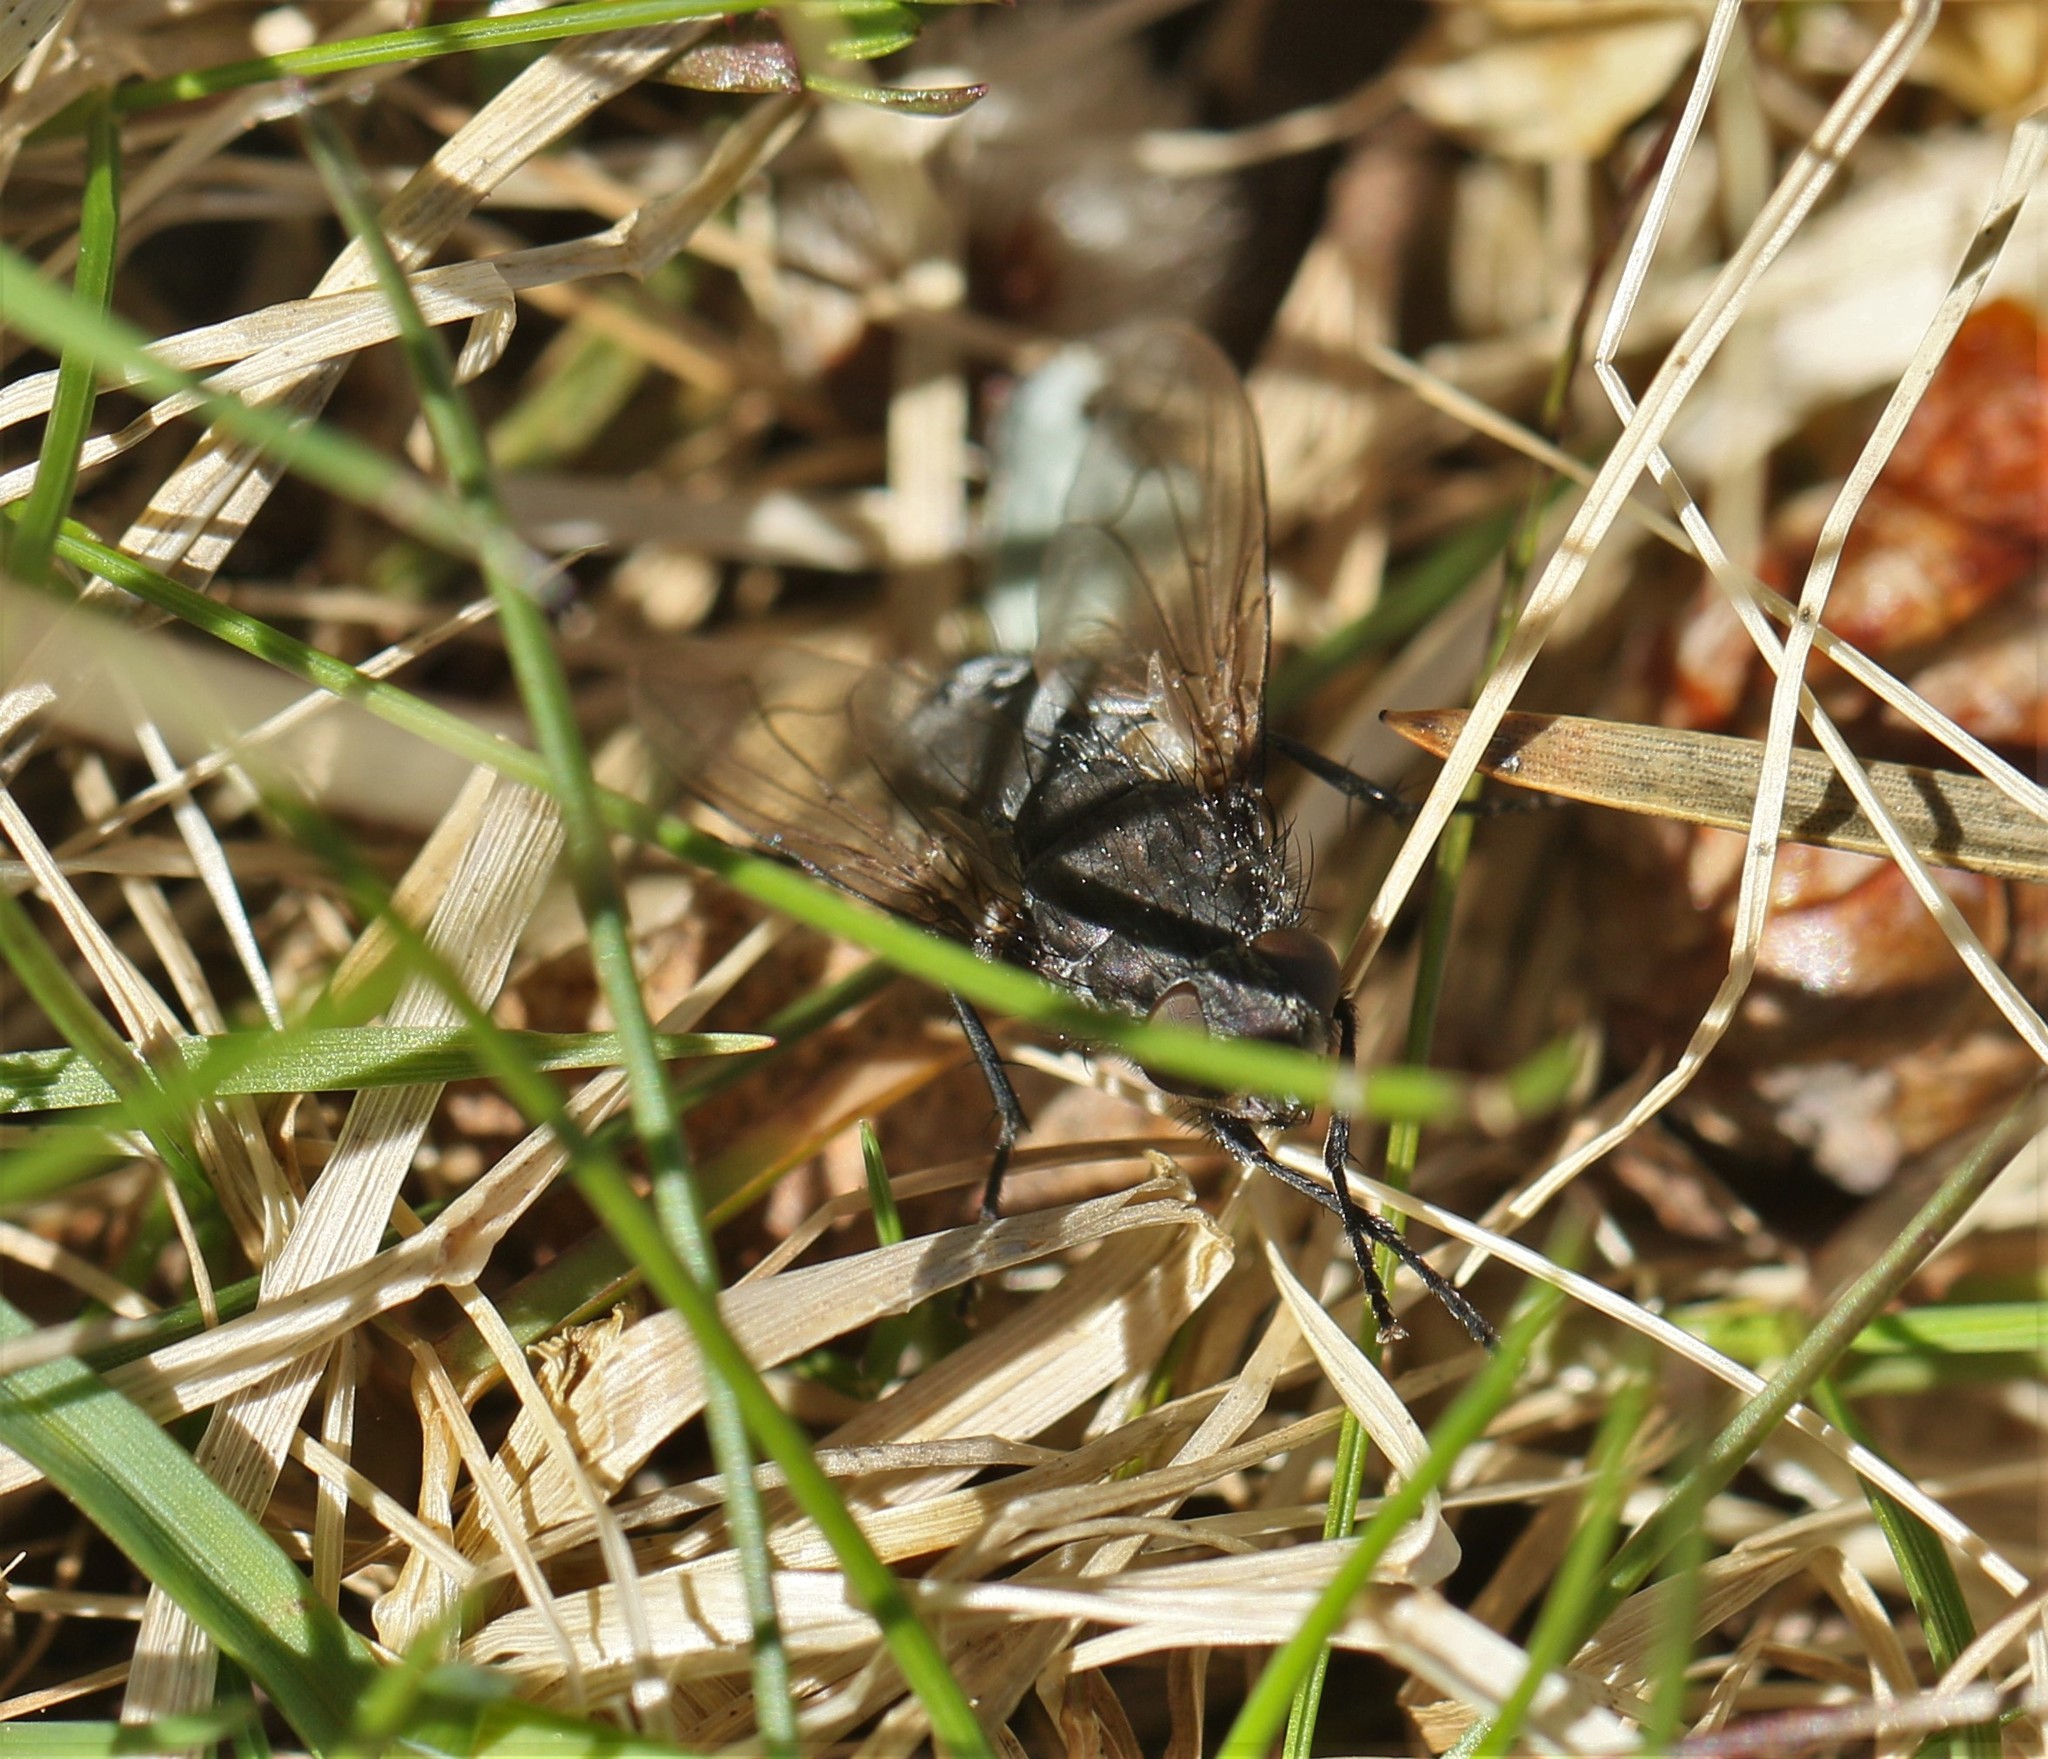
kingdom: Animalia
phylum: Arthropoda
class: Insecta
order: Diptera
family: Polleniidae
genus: Pollenia
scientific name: Pollenia
